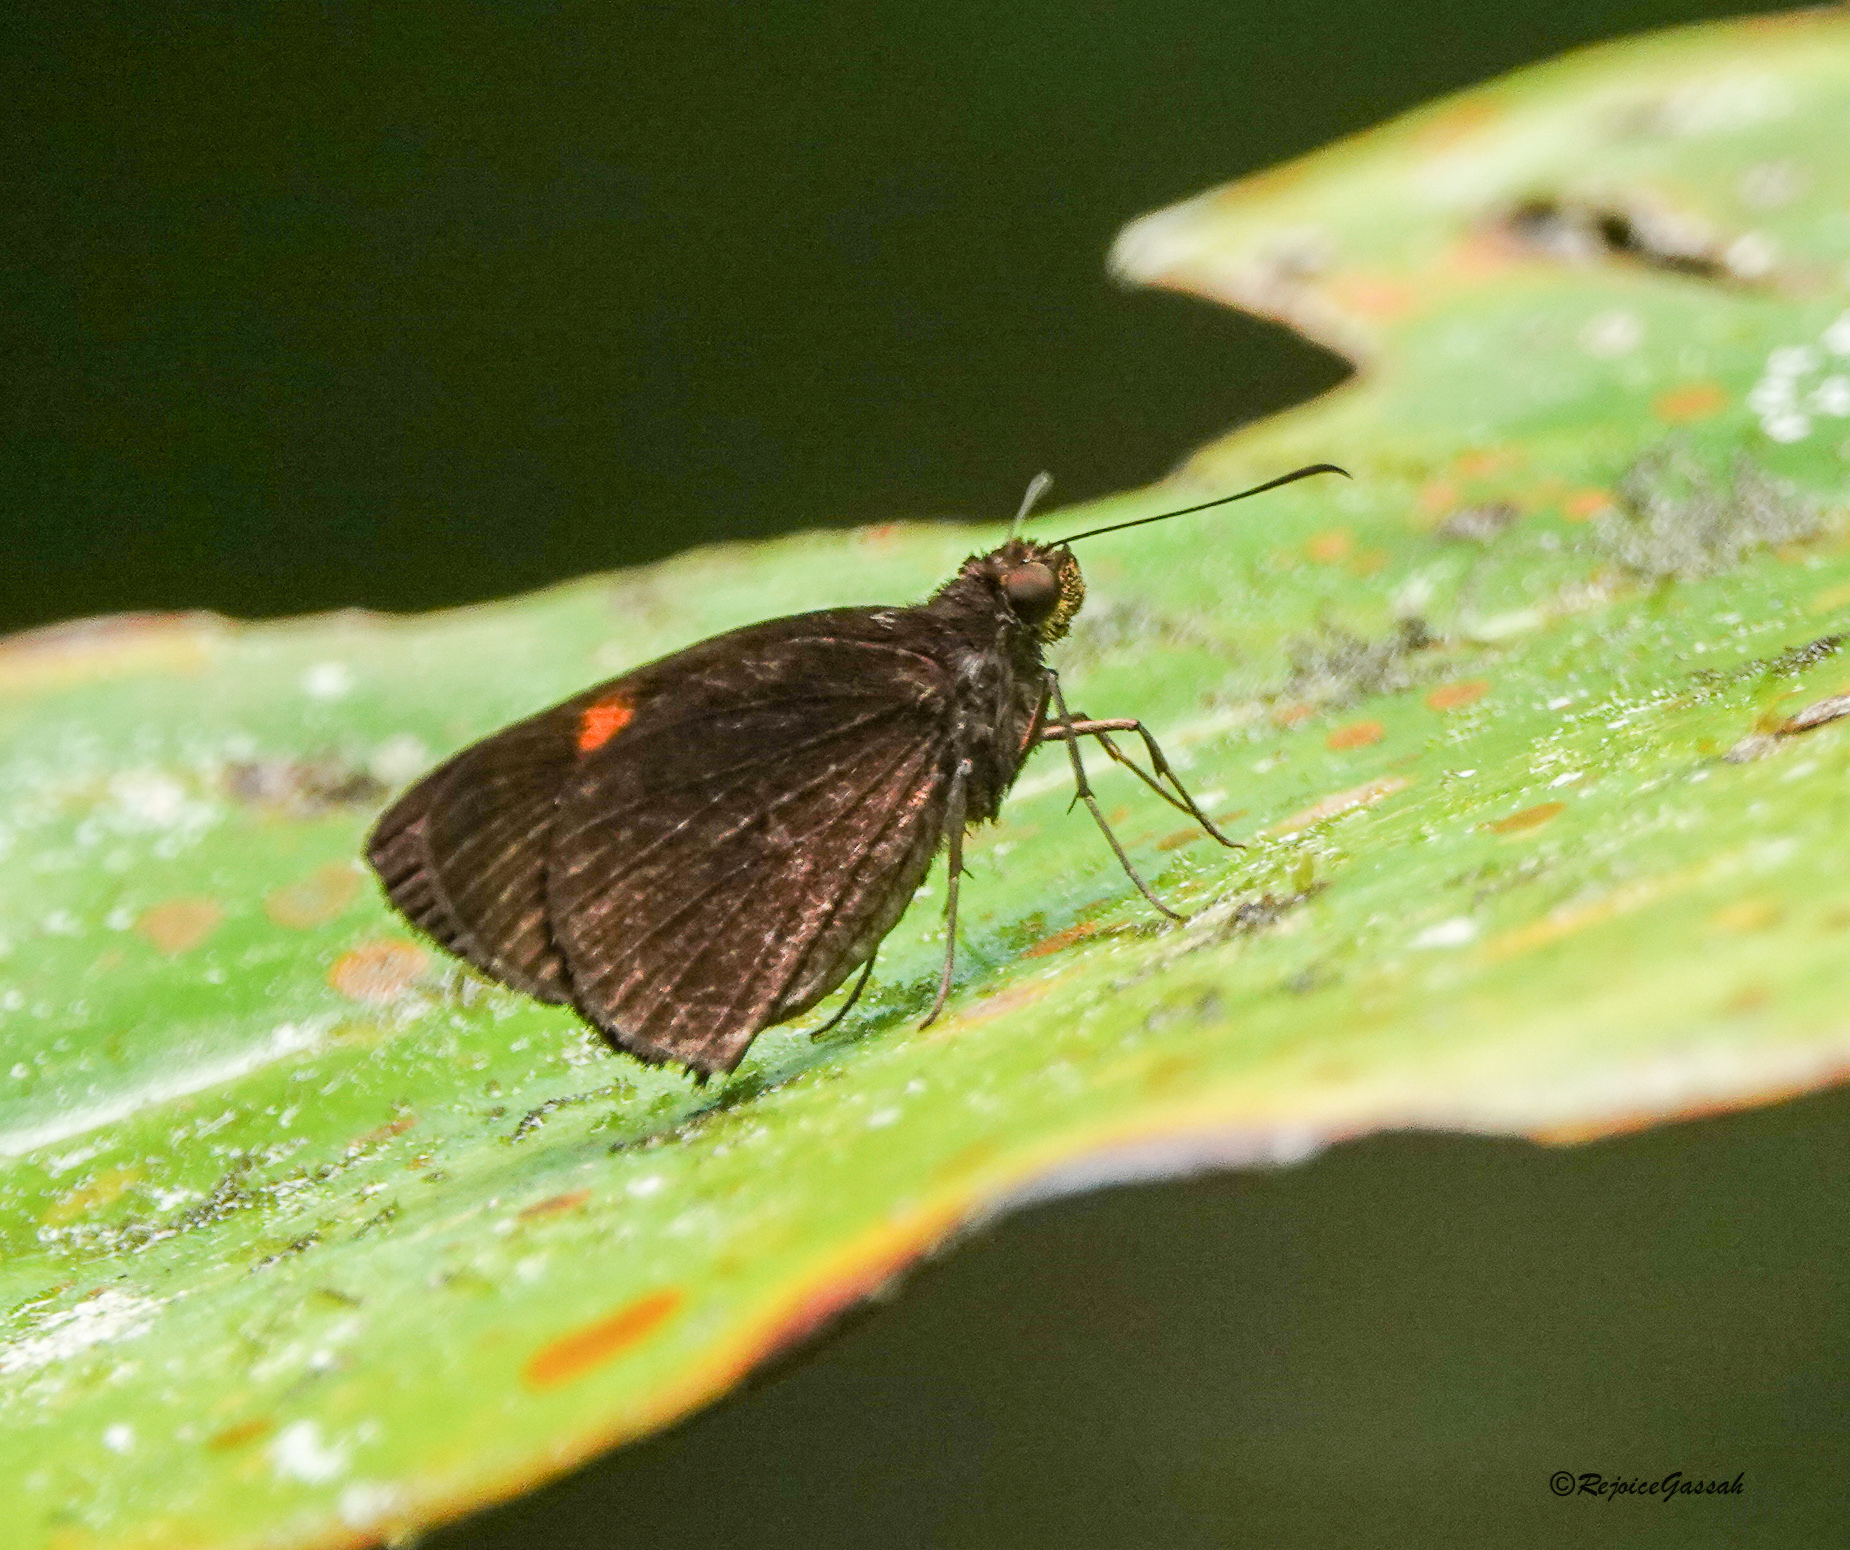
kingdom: Animalia
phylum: Arthropoda
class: Insecta
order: Lepidoptera
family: Hesperiidae
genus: Koruthaialos
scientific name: Koruthaialos sindu
